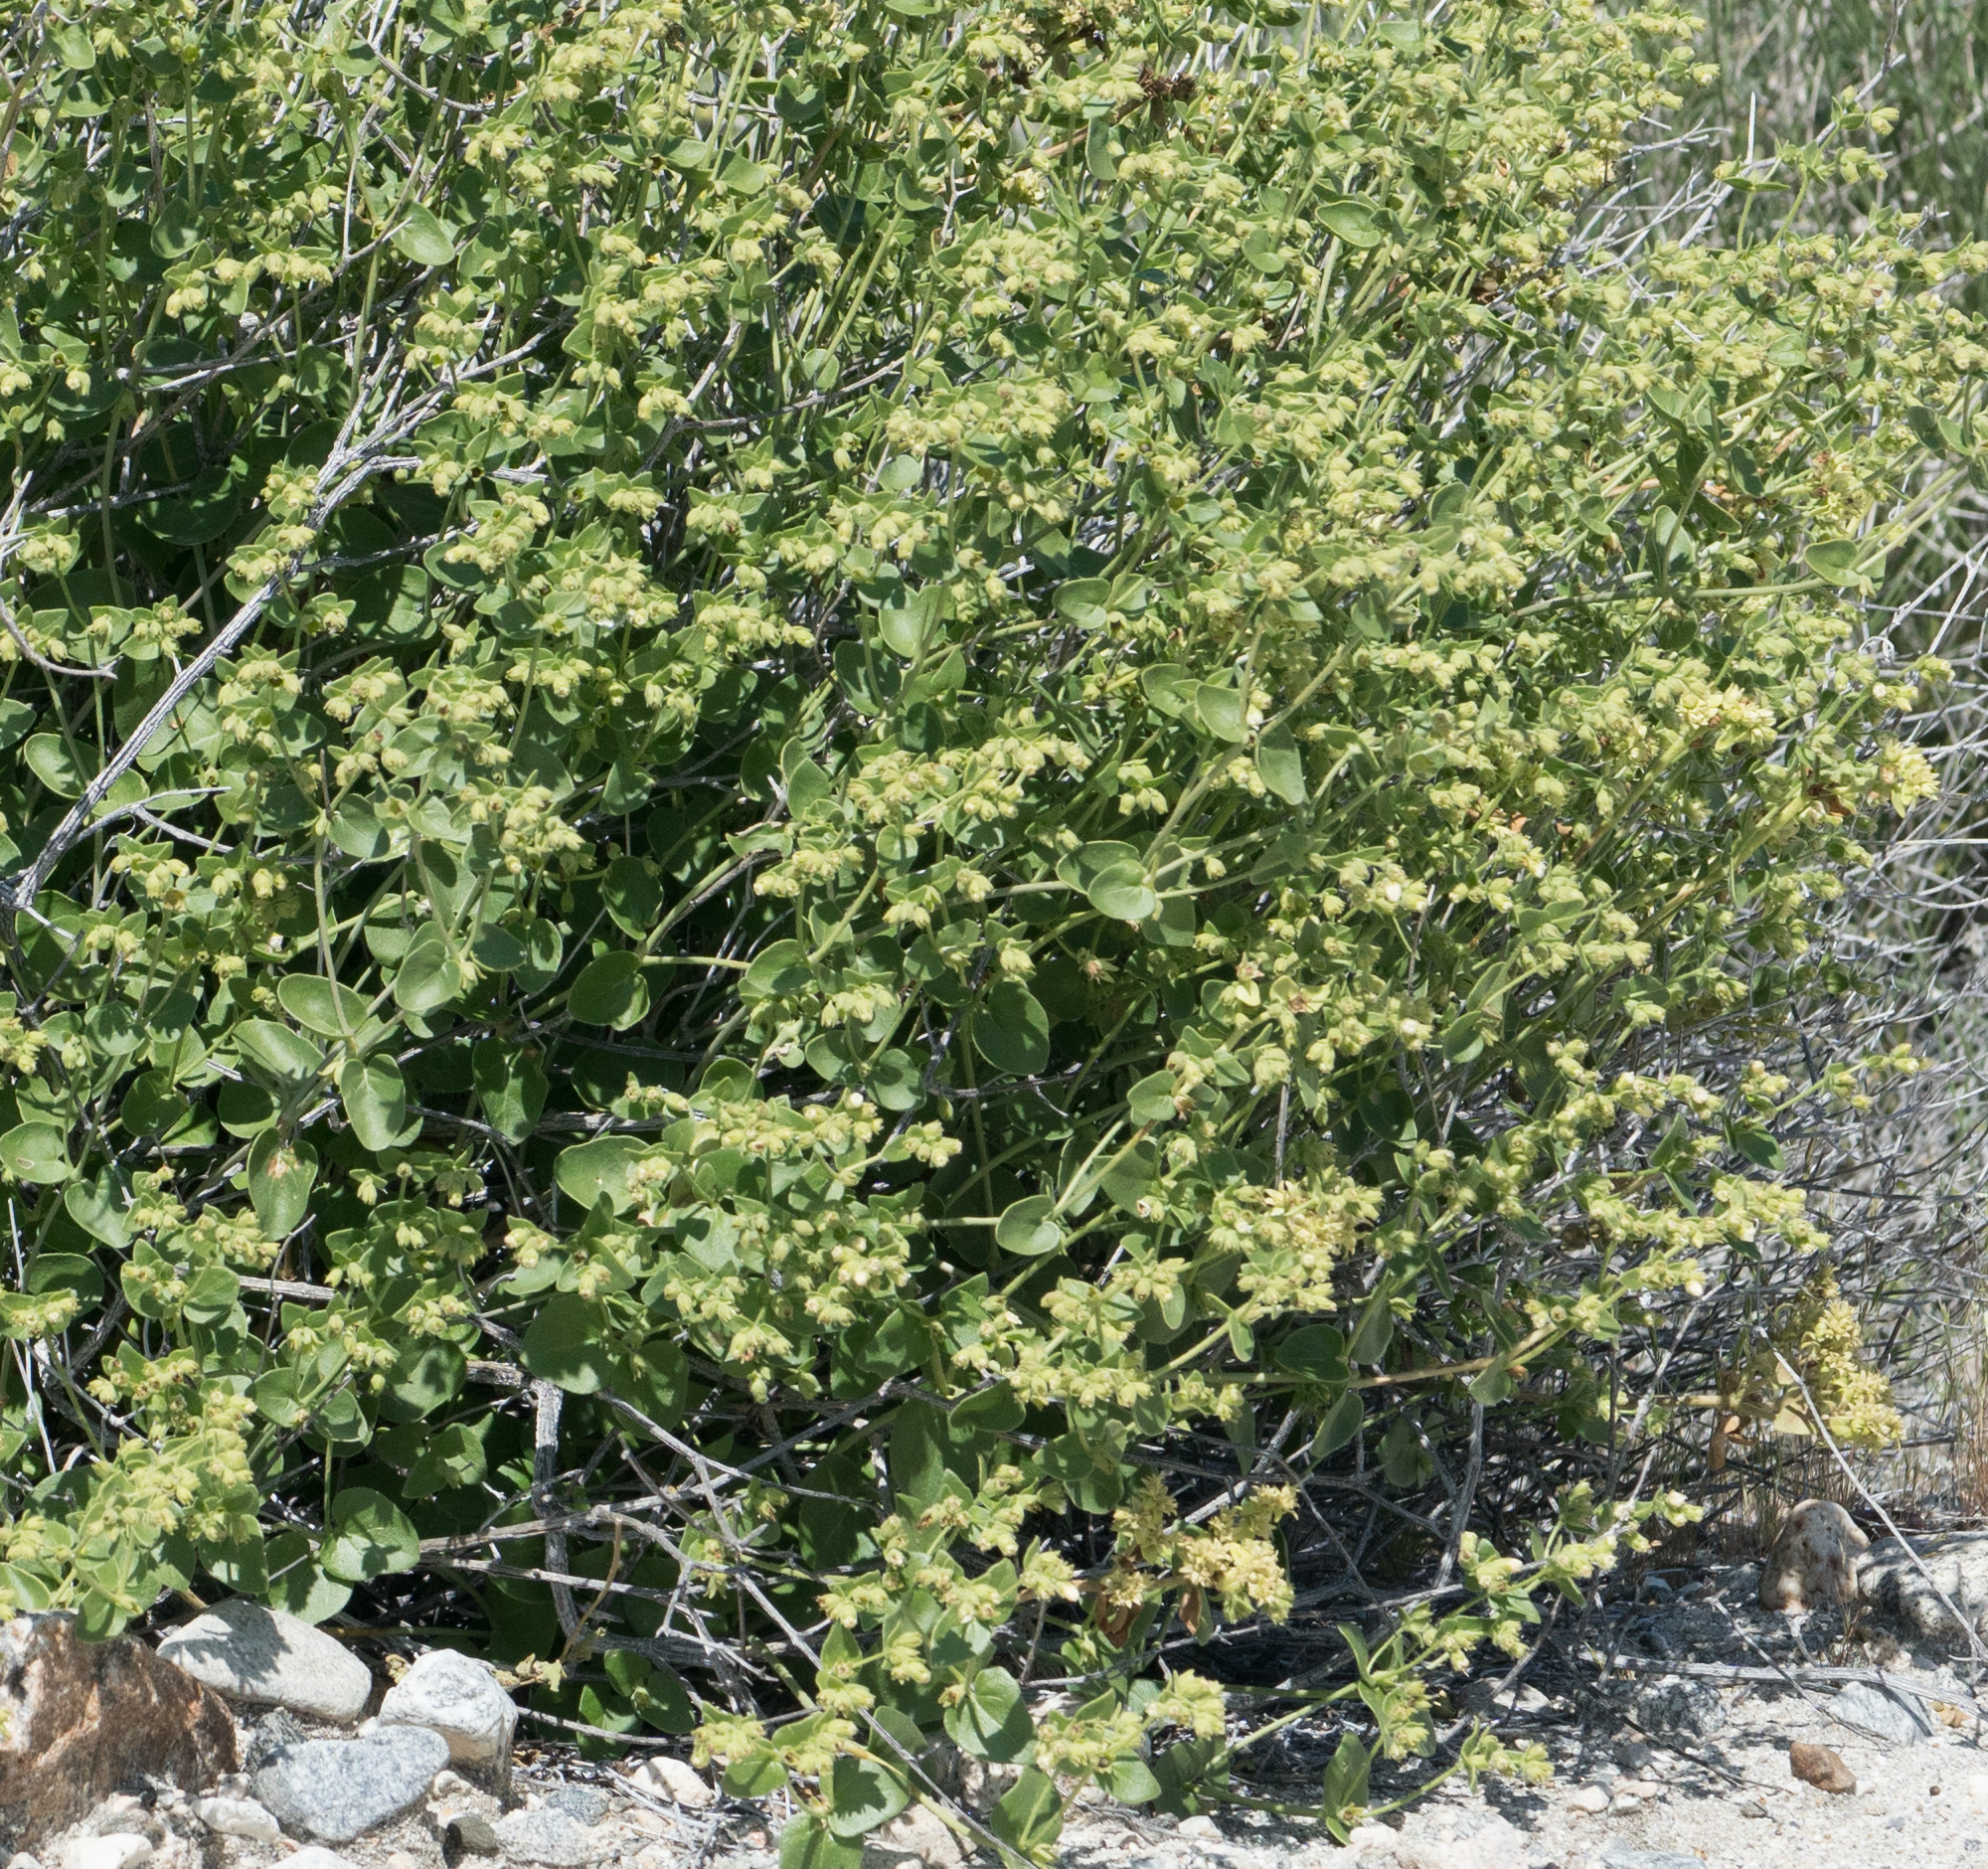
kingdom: Plantae
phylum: Tracheophyta
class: Magnoliopsida
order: Caryophyllales
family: Nyctaginaceae
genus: Mirabilis
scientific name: Mirabilis laevis
